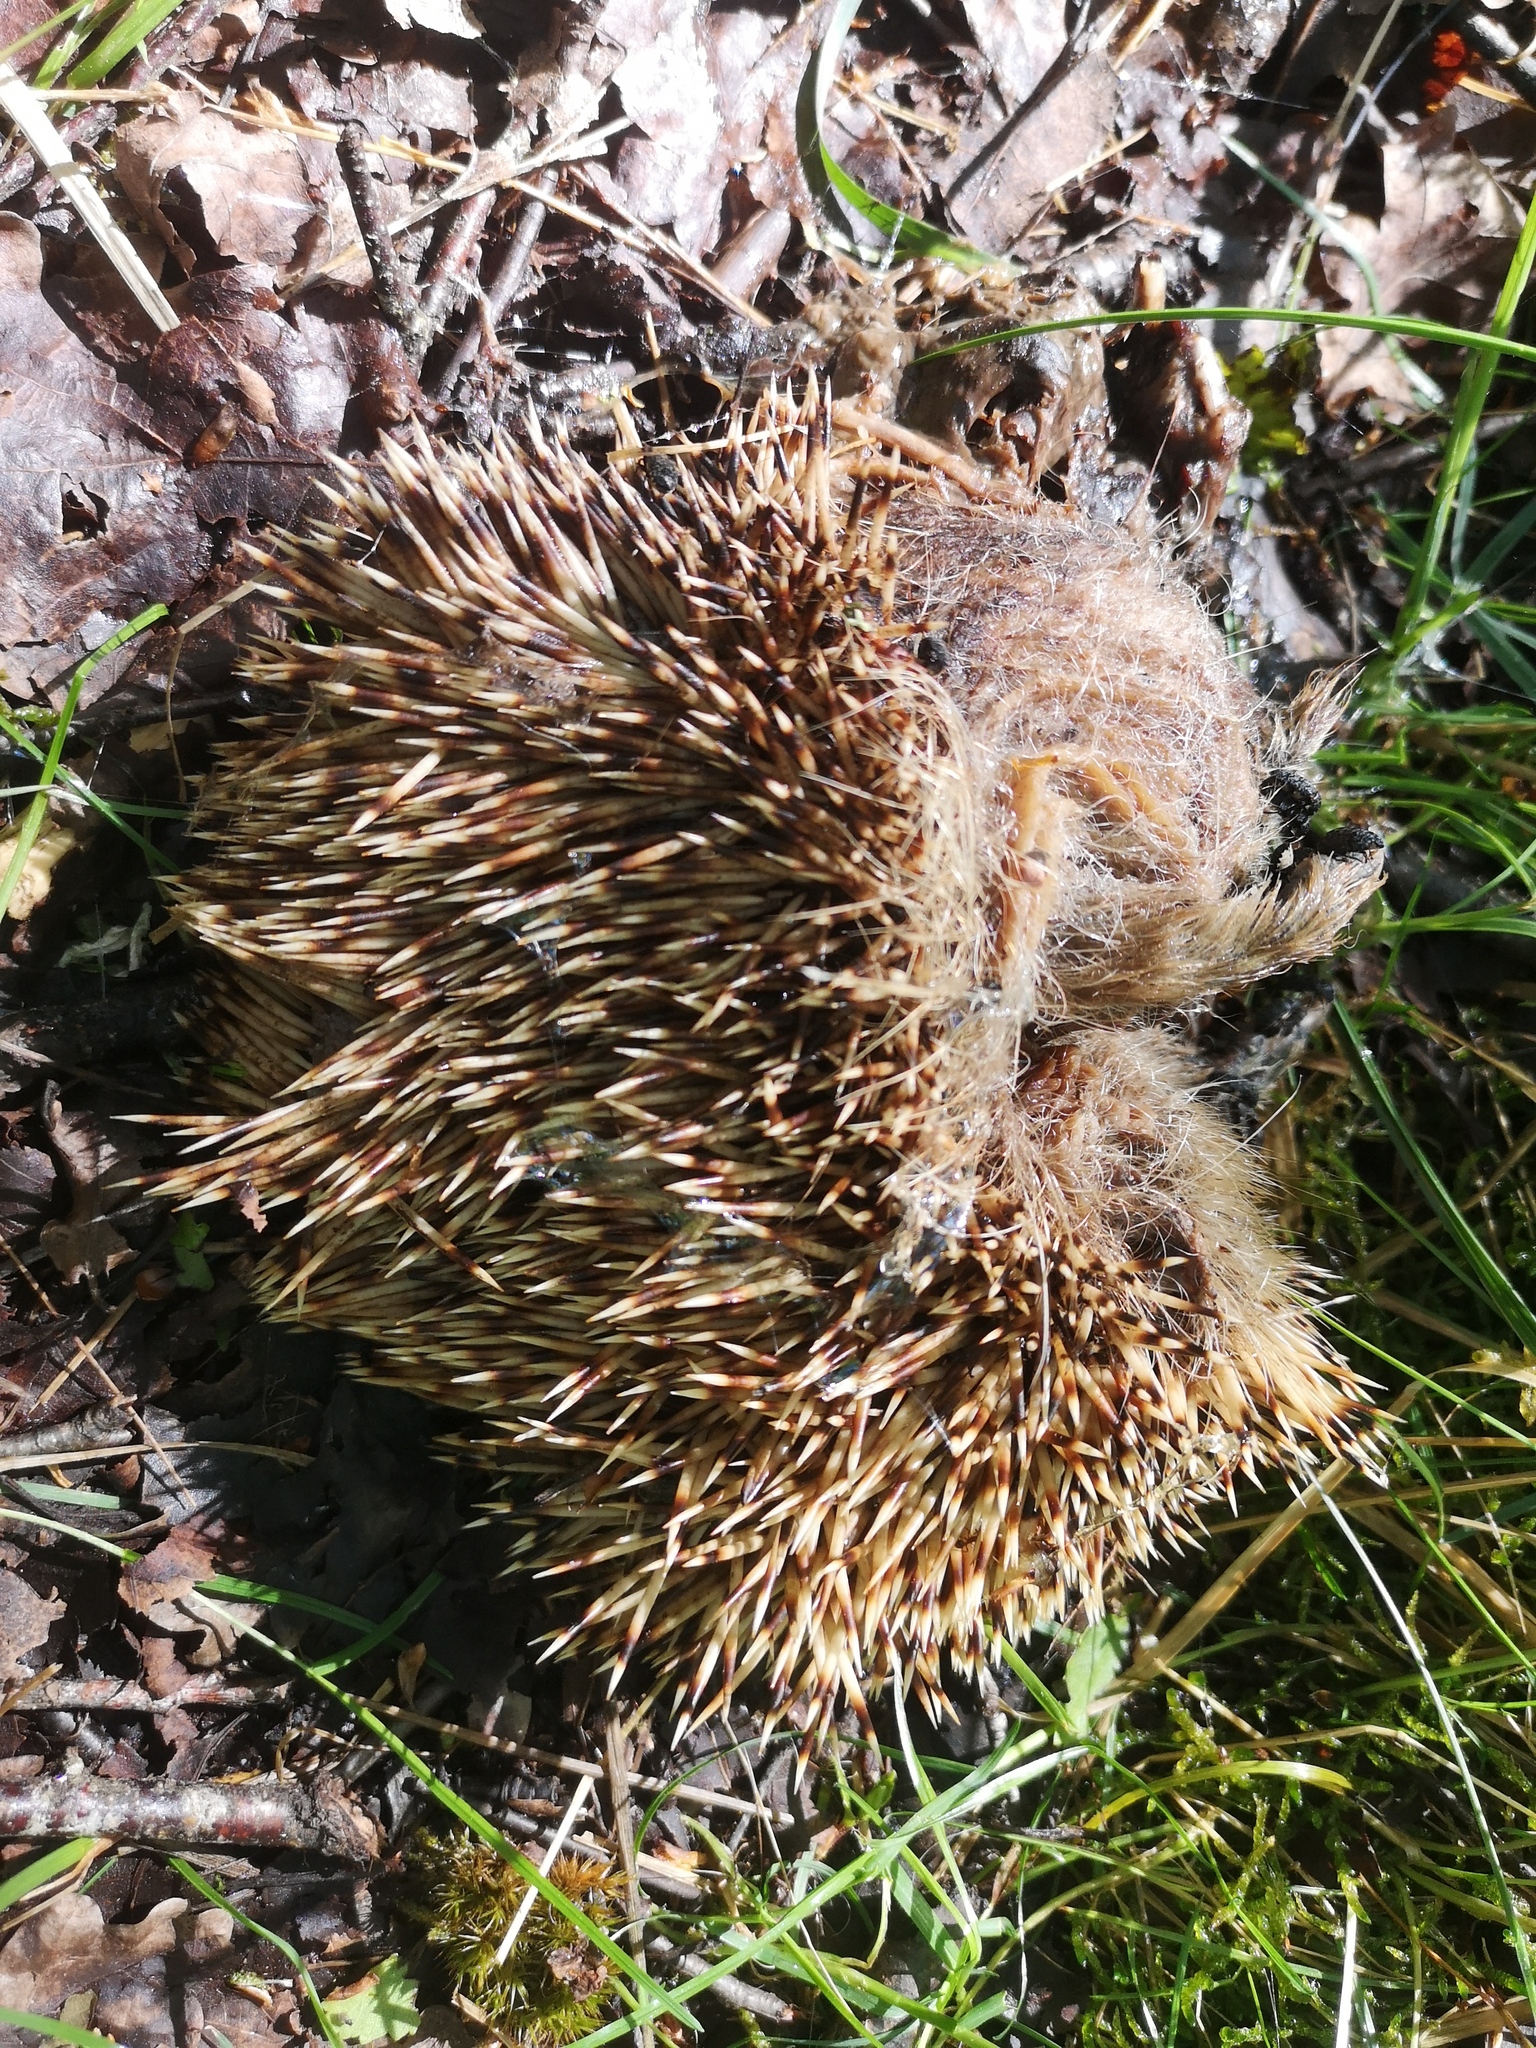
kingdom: Animalia
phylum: Chordata
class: Mammalia
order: Erinaceomorpha
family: Erinaceidae
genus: Erinaceus
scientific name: Erinaceus europaeus
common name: West european hedgehog
